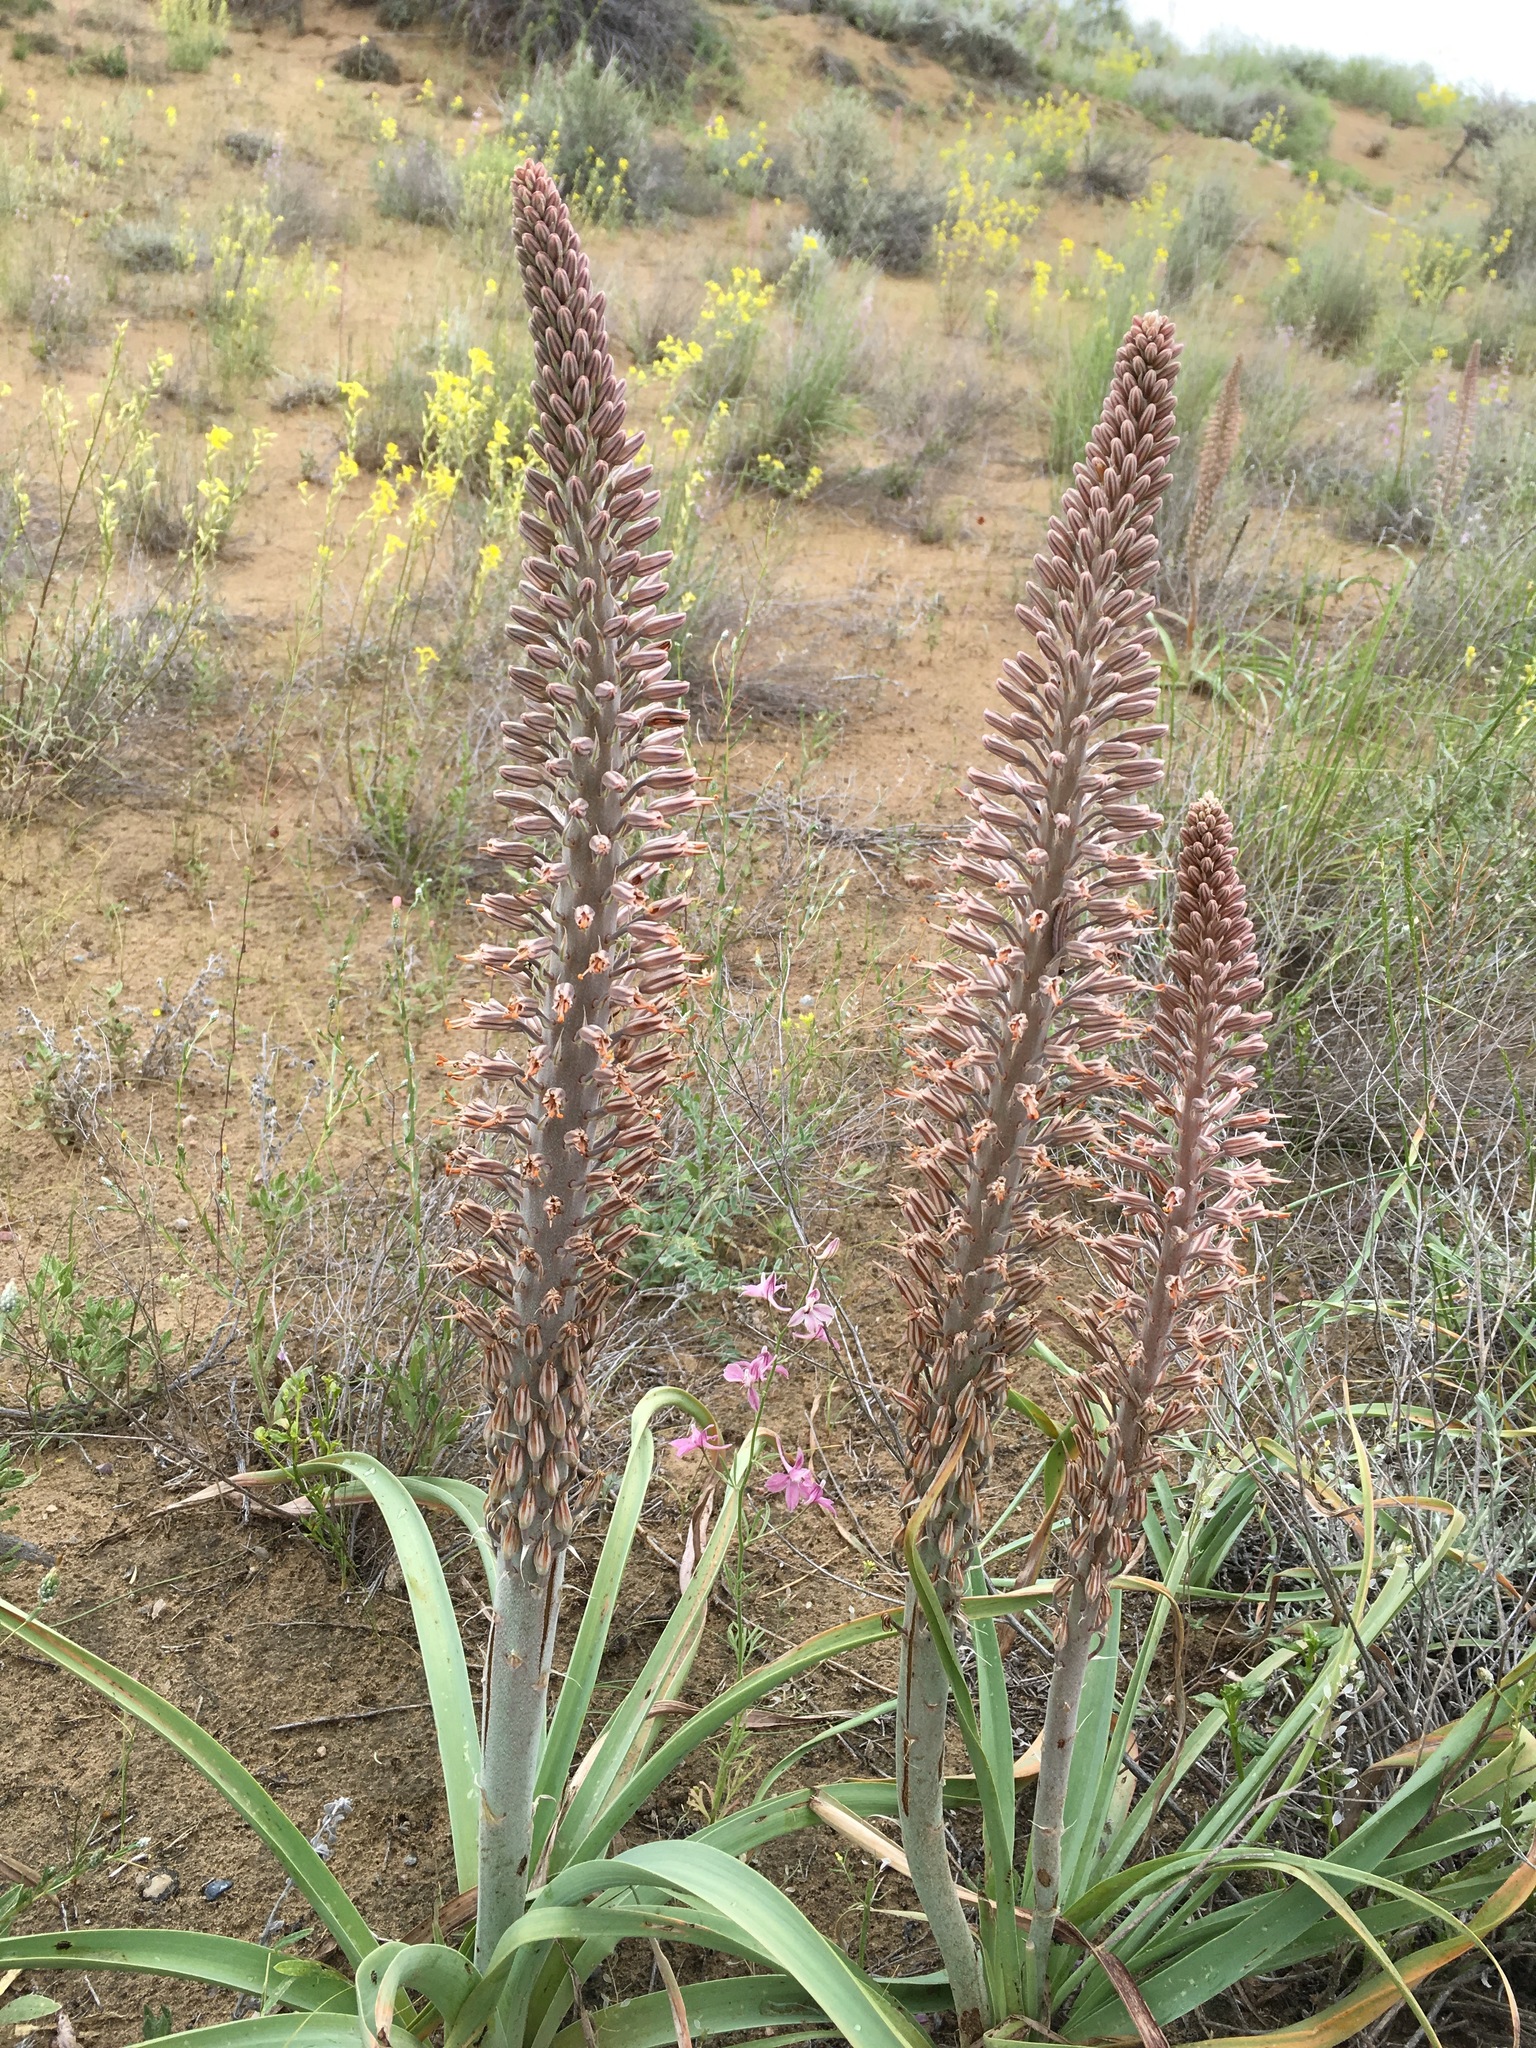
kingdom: Plantae
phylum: Tracheophyta
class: Liliopsida
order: Asparagales
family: Asphodelaceae
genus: Eremurus
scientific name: Eremurus inderiensis
